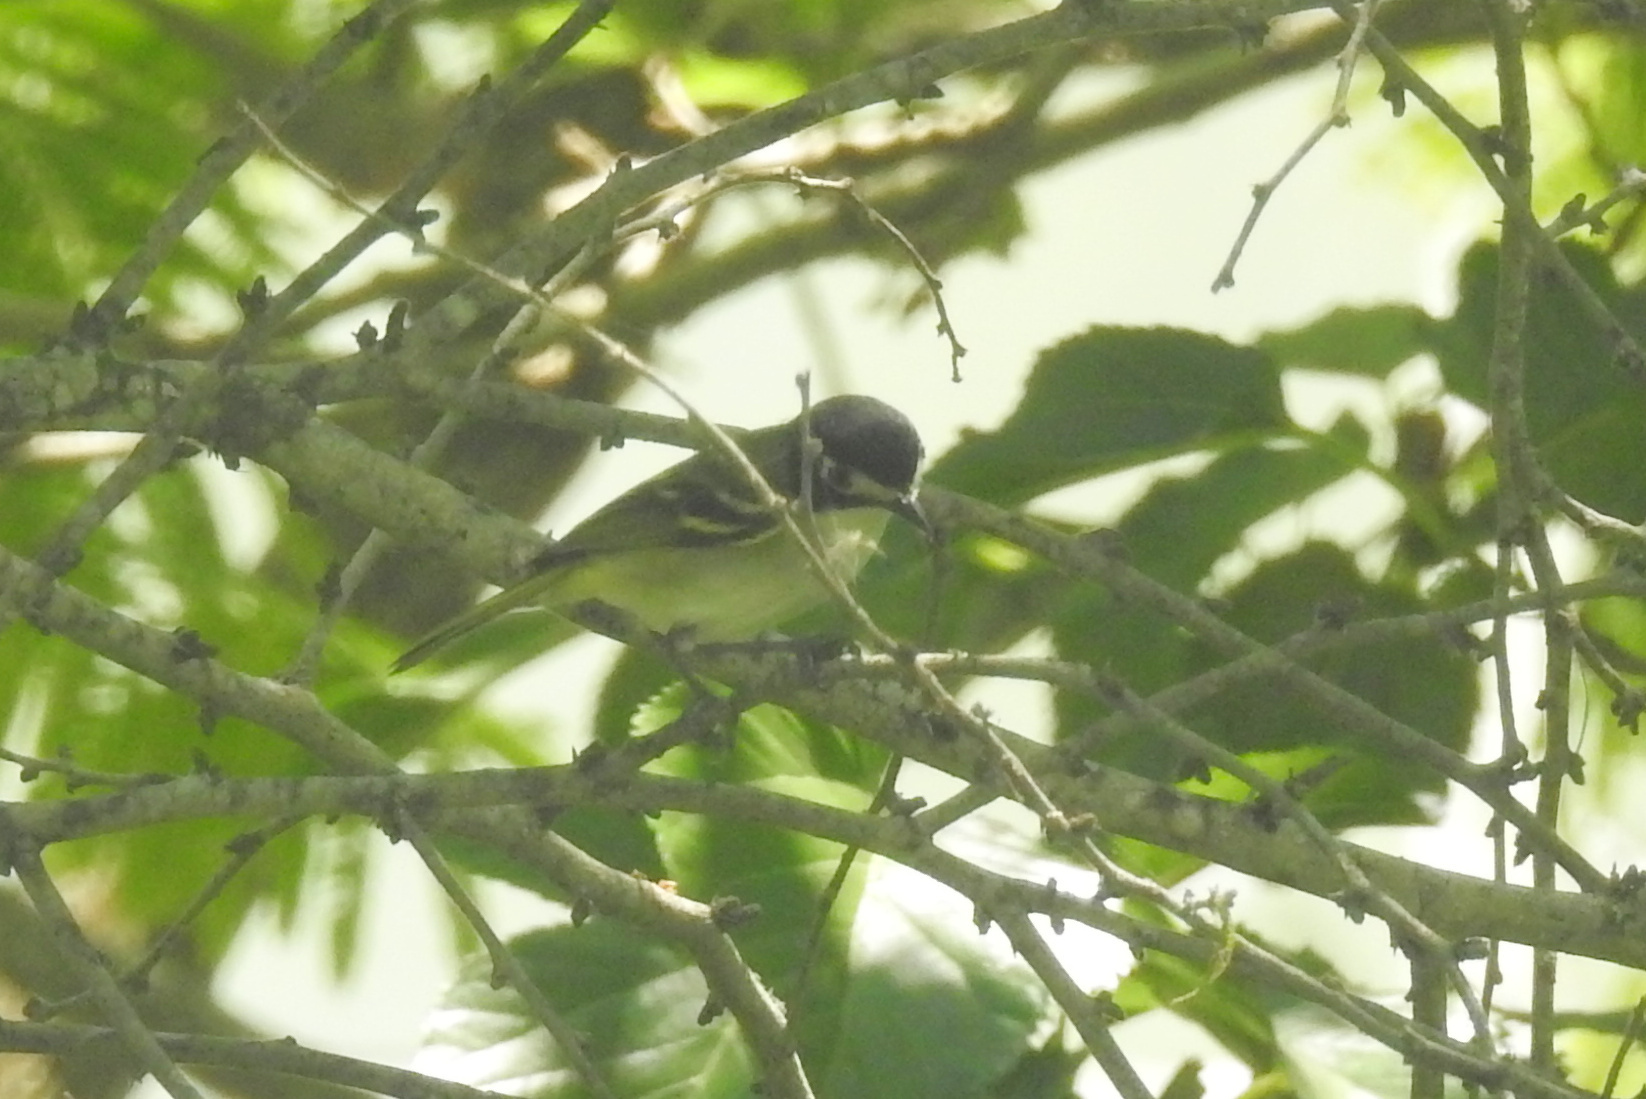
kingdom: Animalia
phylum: Chordata
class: Aves
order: Passeriformes
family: Vireonidae
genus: Vireo
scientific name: Vireo atricapilla
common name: Black-capped vireo
